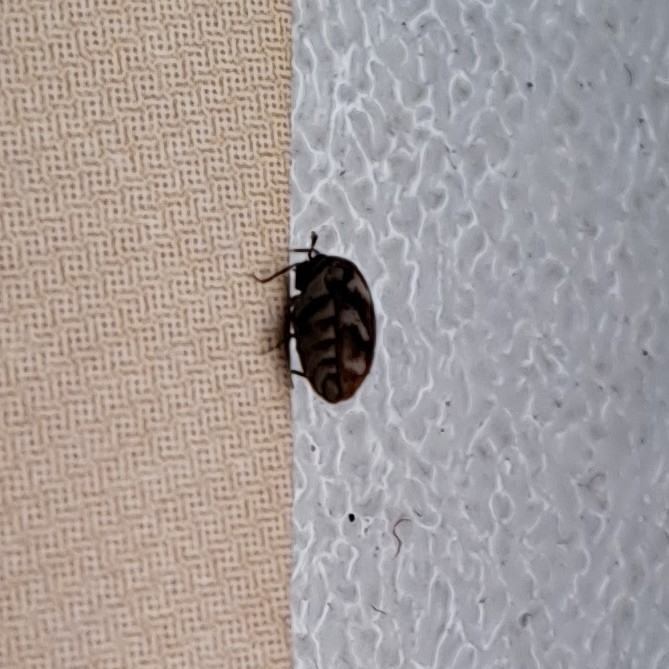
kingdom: Animalia
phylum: Arthropoda
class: Insecta
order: Coleoptera
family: Dermestidae
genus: Anthrenus
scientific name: Anthrenus verbasci
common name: Varied carpet beetle
